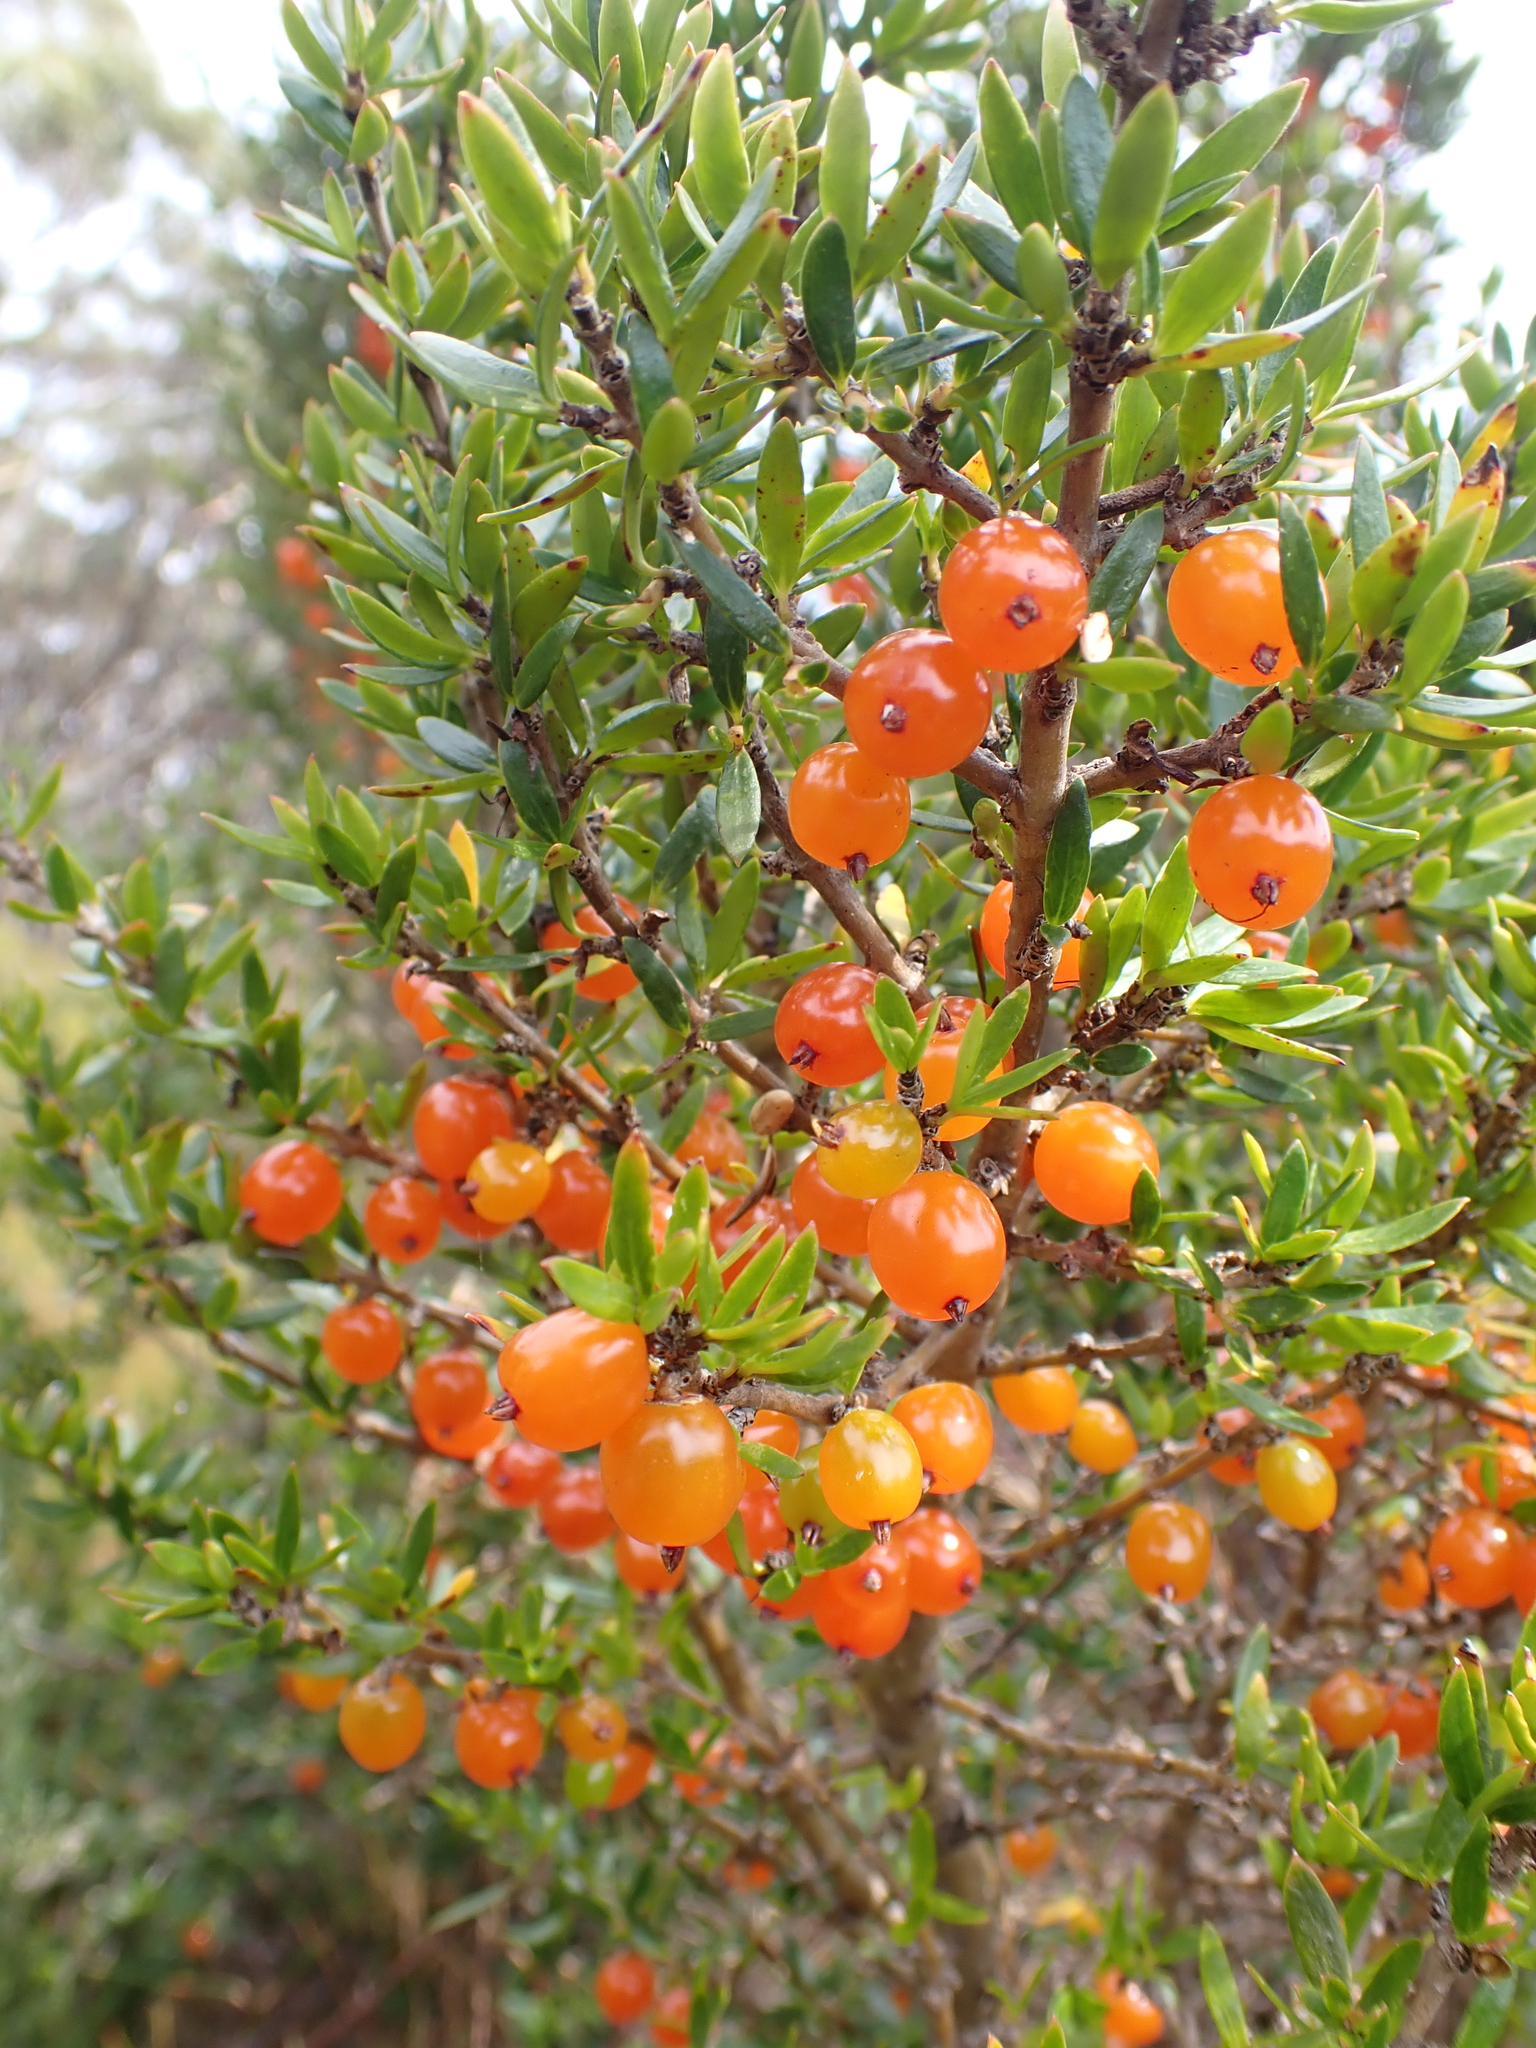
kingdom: Plantae
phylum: Tracheophyta
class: Magnoliopsida
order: Gentianales
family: Rubiaceae
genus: Coprosma
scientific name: Coprosma nitida
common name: Shining coprosma
